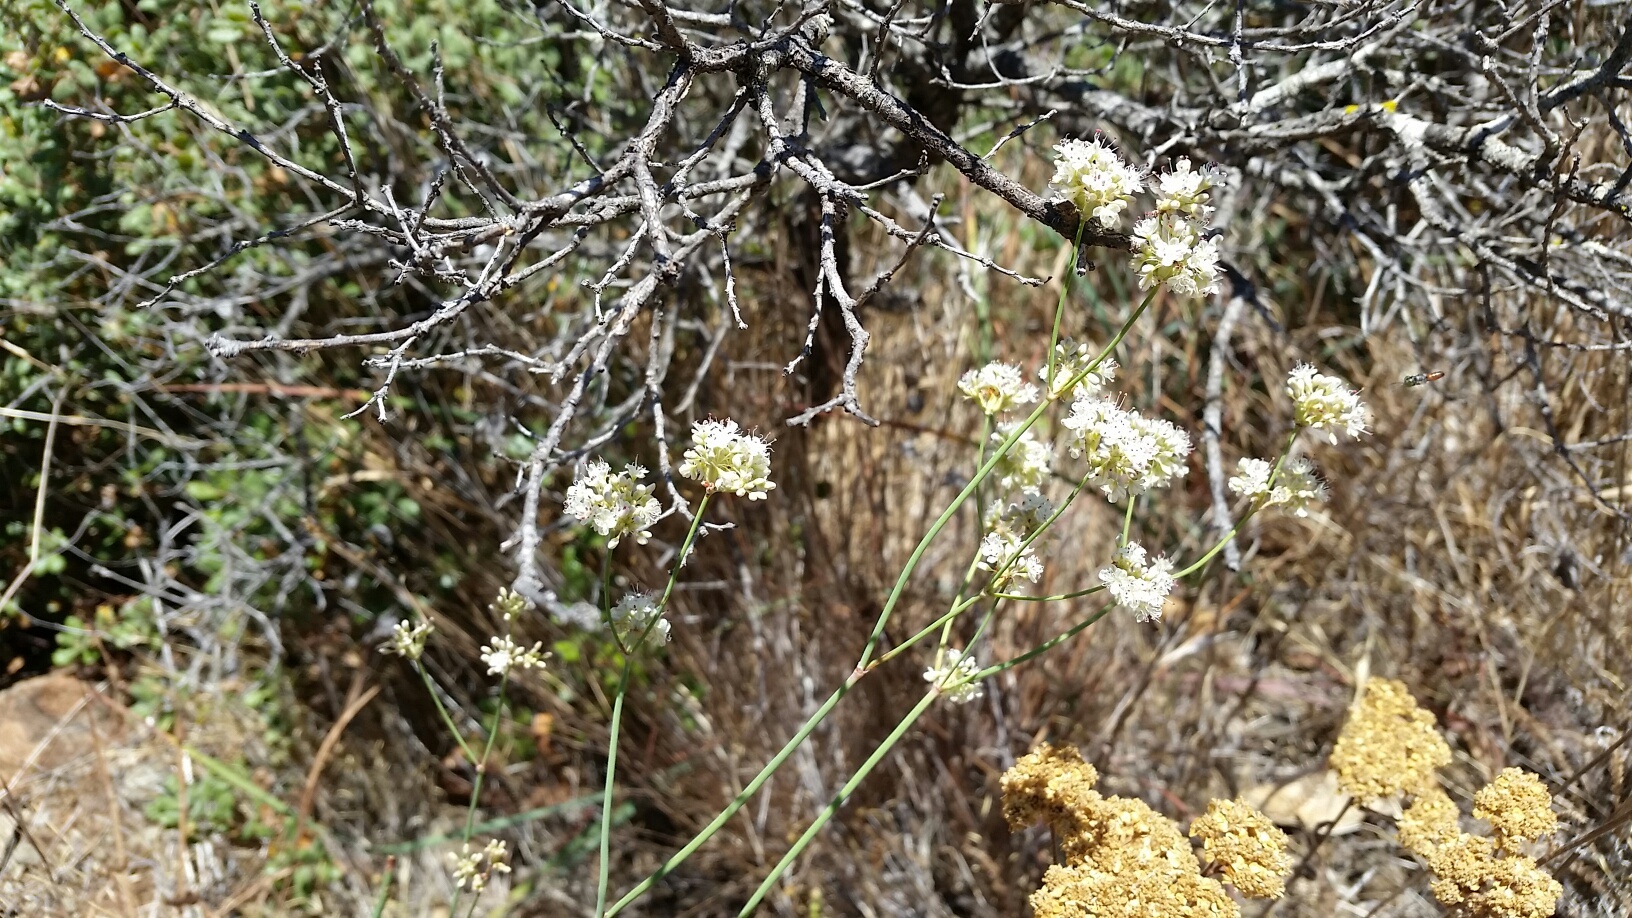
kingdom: Plantae
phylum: Tracheophyta
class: Magnoliopsida
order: Caryophyllales
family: Polygonaceae
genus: Eriogonum
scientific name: Eriogonum nudum
